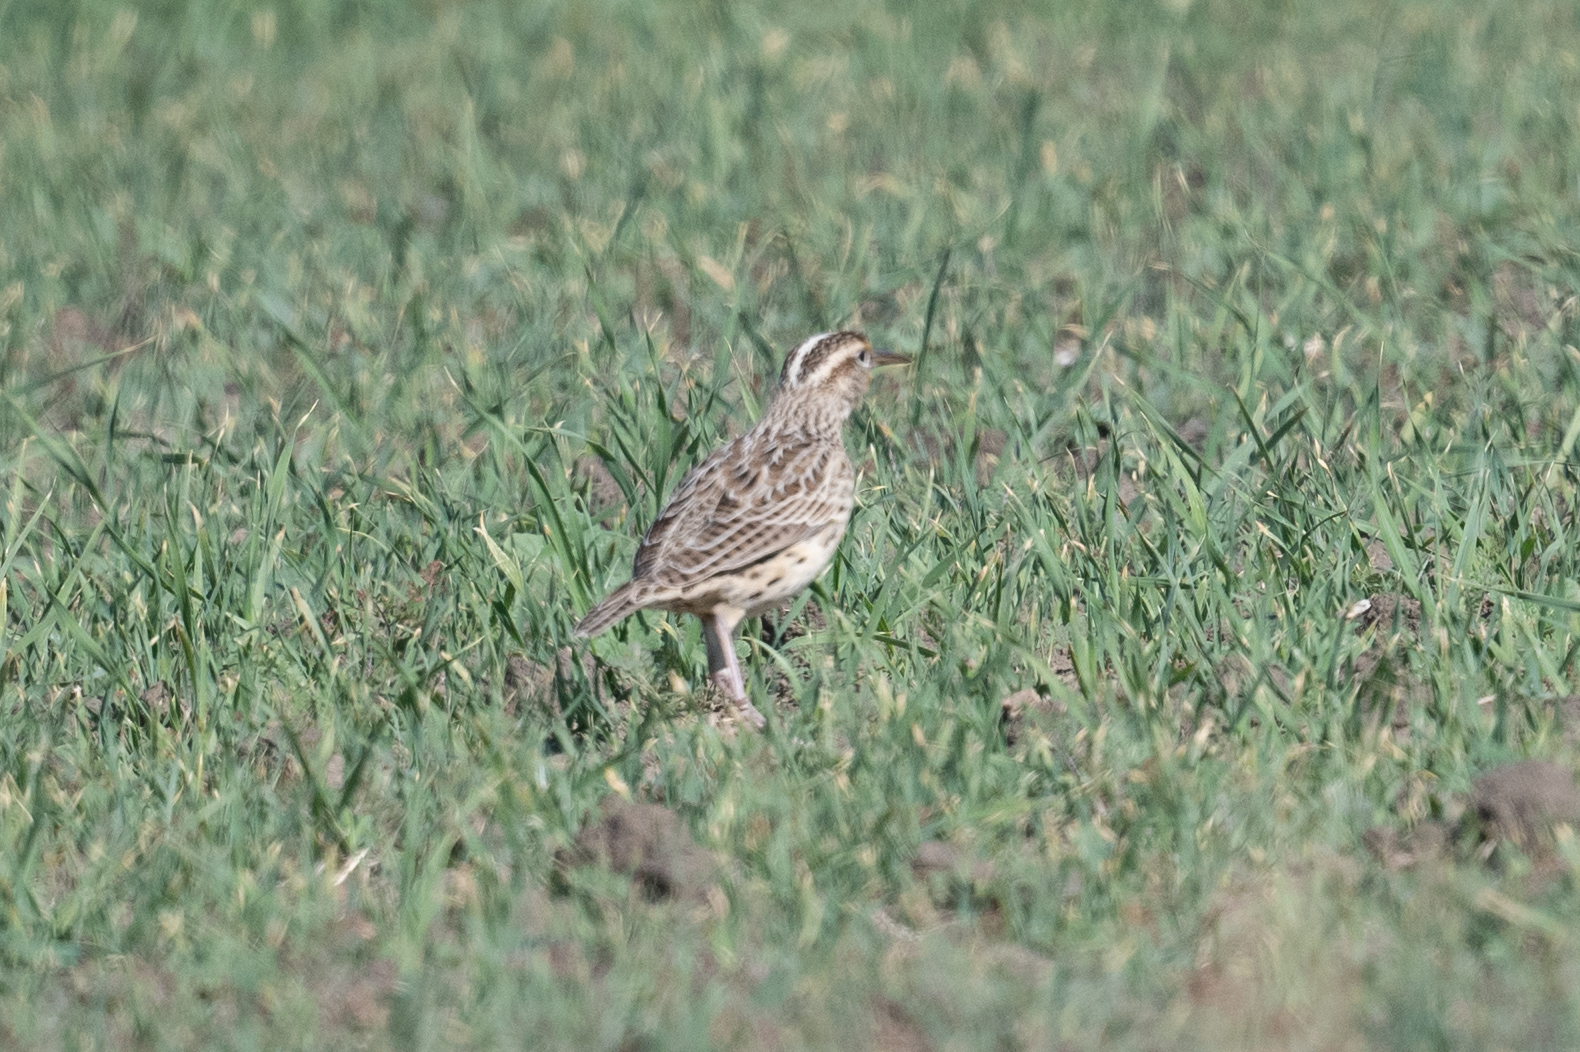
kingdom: Animalia
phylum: Chordata
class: Aves
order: Passeriformes
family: Icteridae
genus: Sturnella
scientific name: Sturnella neglecta
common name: Western meadowlark
